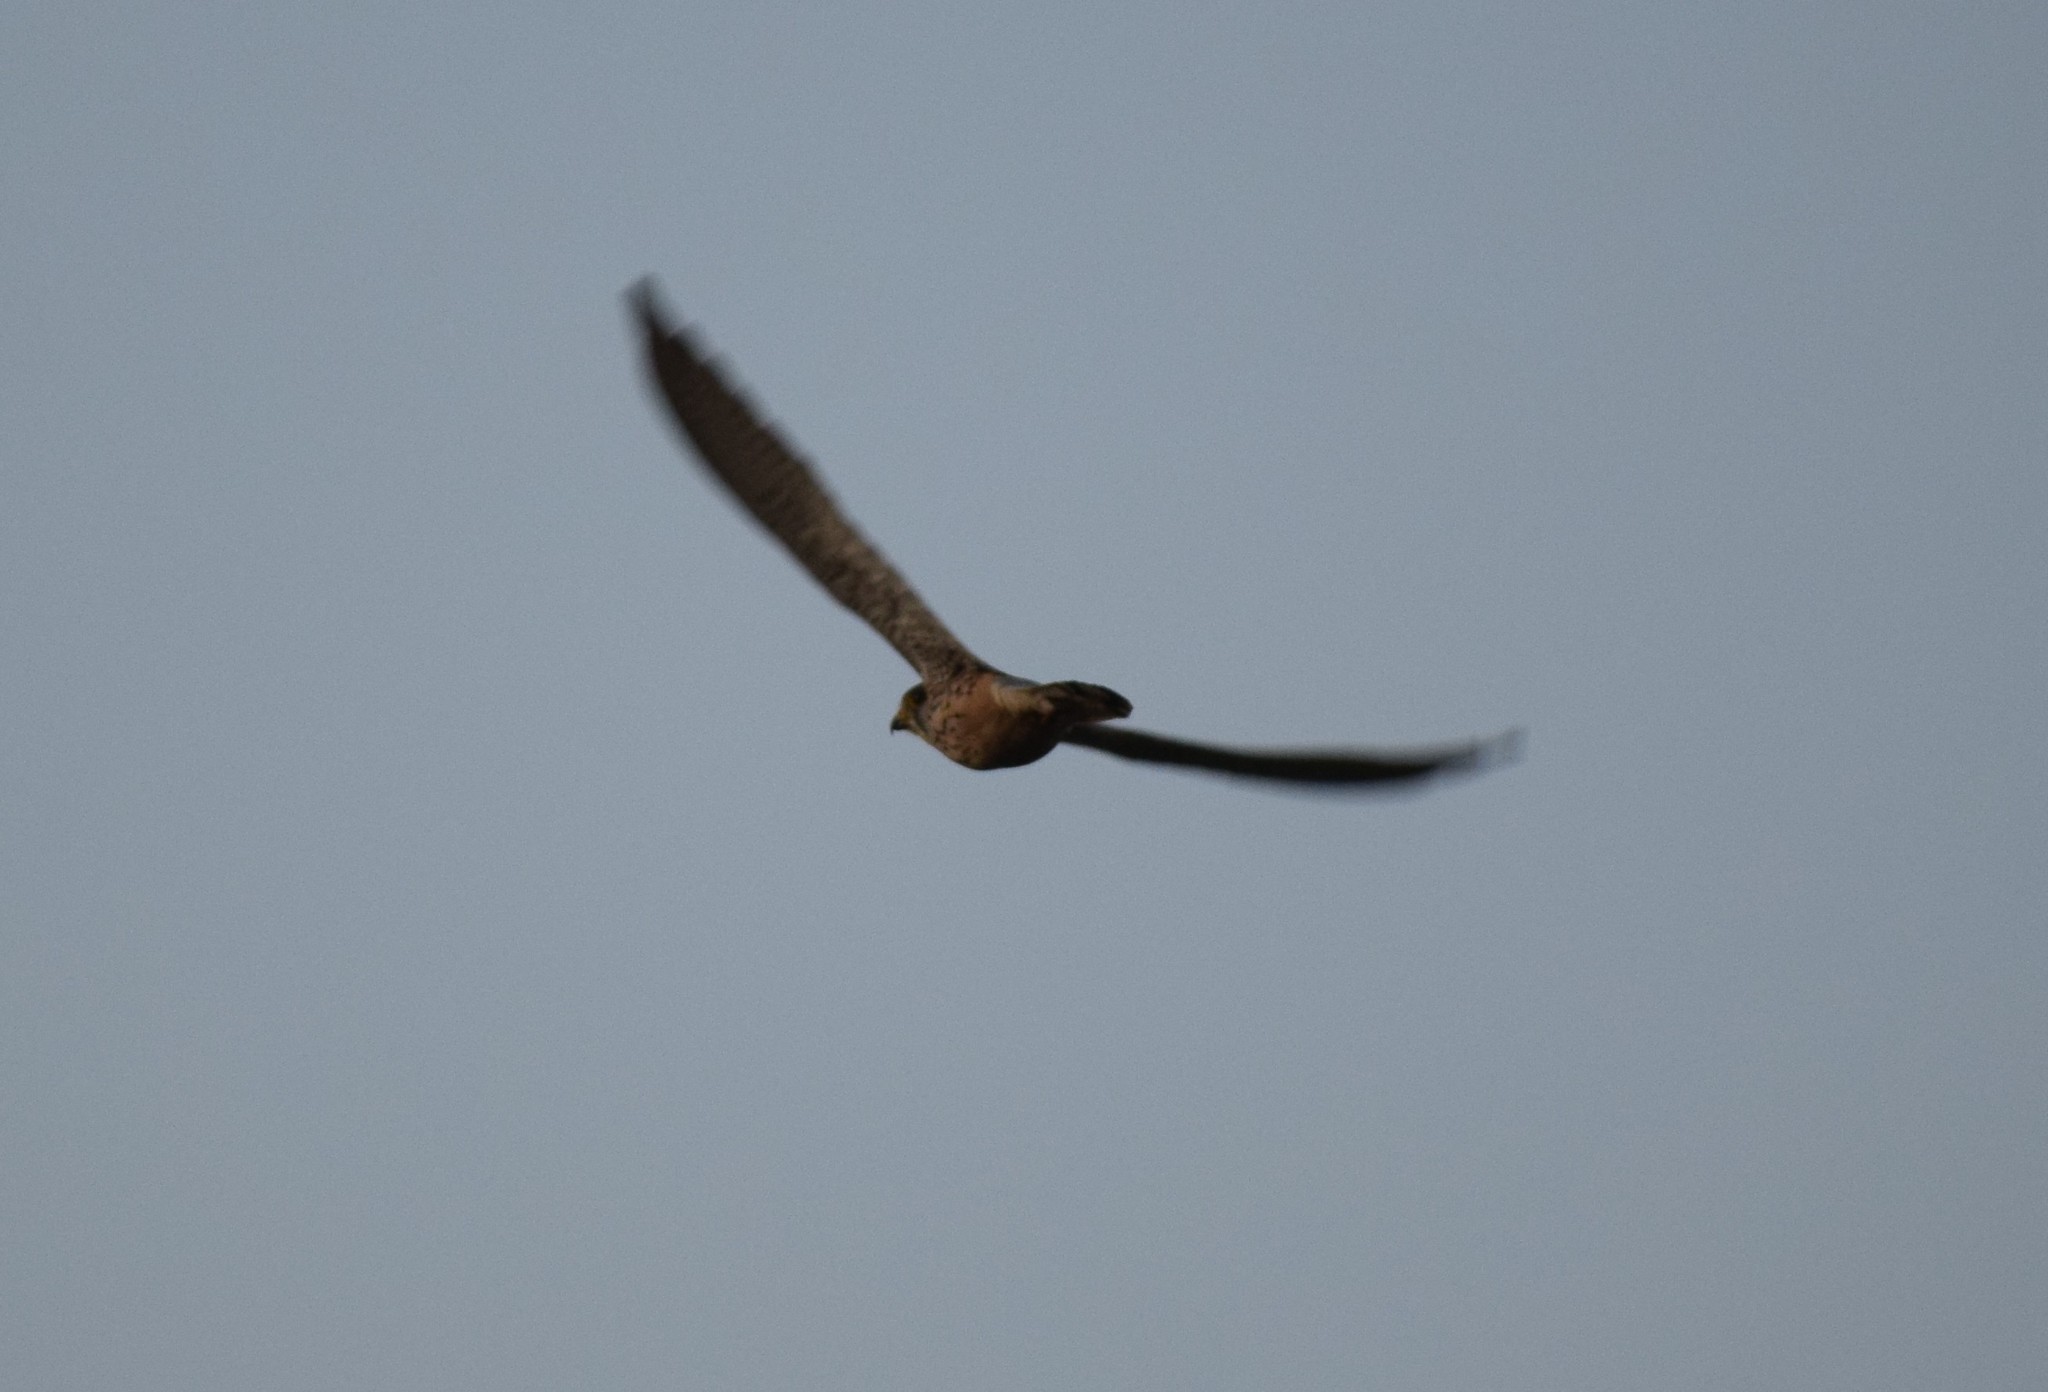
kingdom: Animalia
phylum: Chordata
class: Aves
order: Falconiformes
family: Falconidae
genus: Falco
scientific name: Falco tinnunculus
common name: Common kestrel
